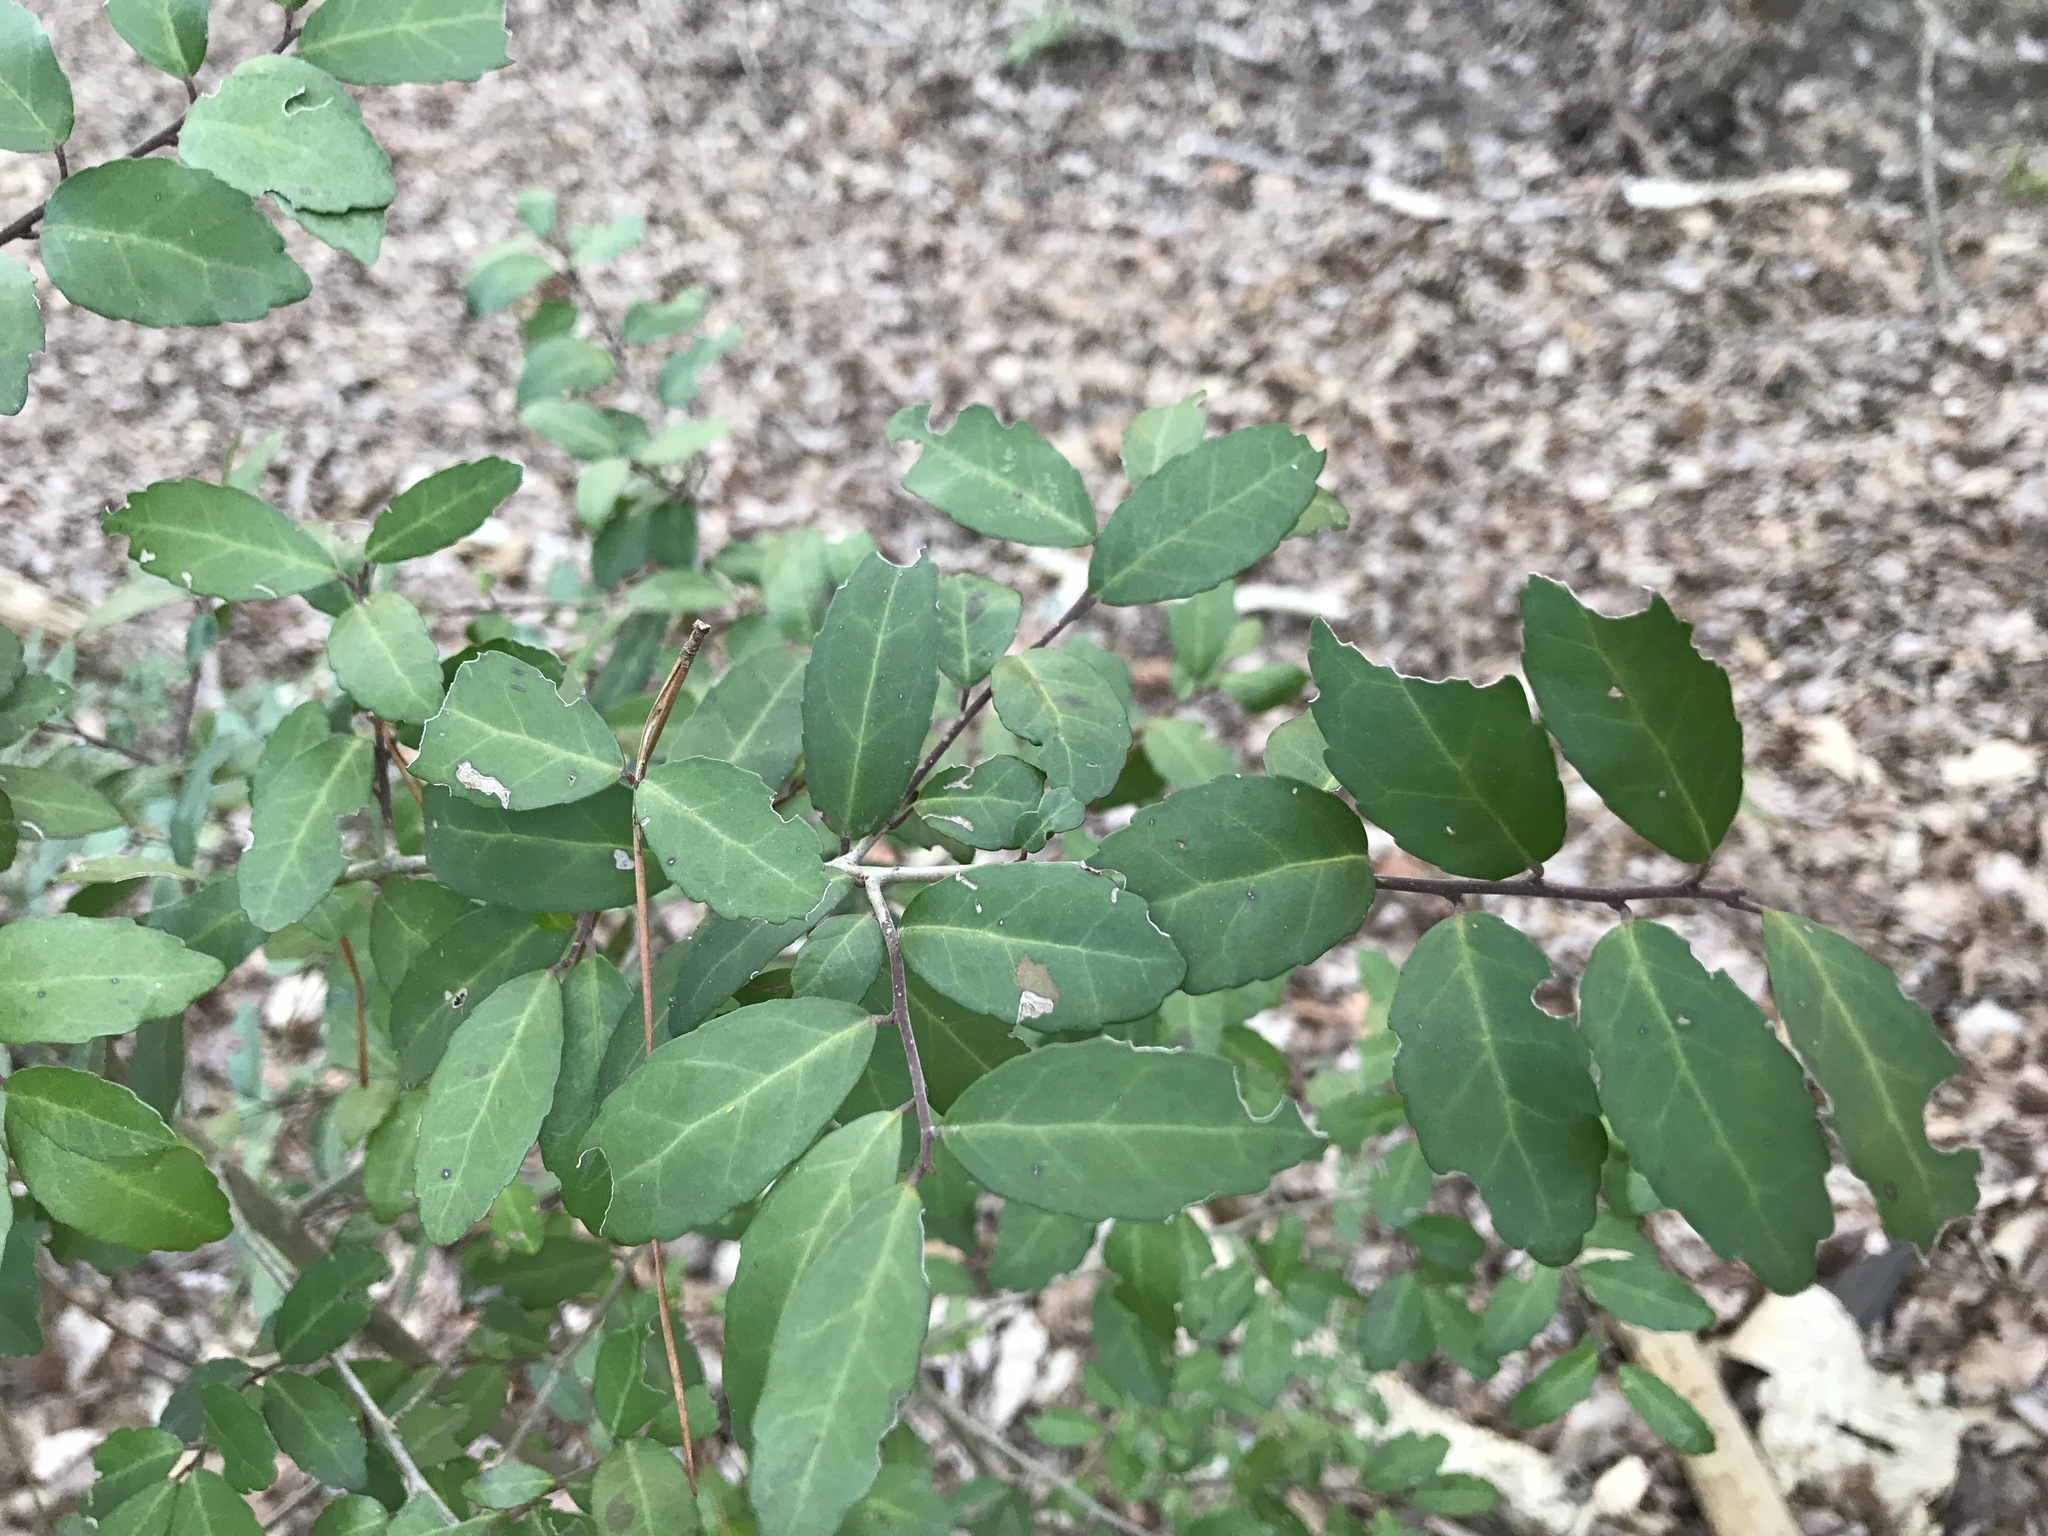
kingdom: Plantae
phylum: Tracheophyta
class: Magnoliopsida
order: Aquifoliales
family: Aquifoliaceae
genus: Ilex
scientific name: Ilex vomitoria
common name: Yaupon holly
